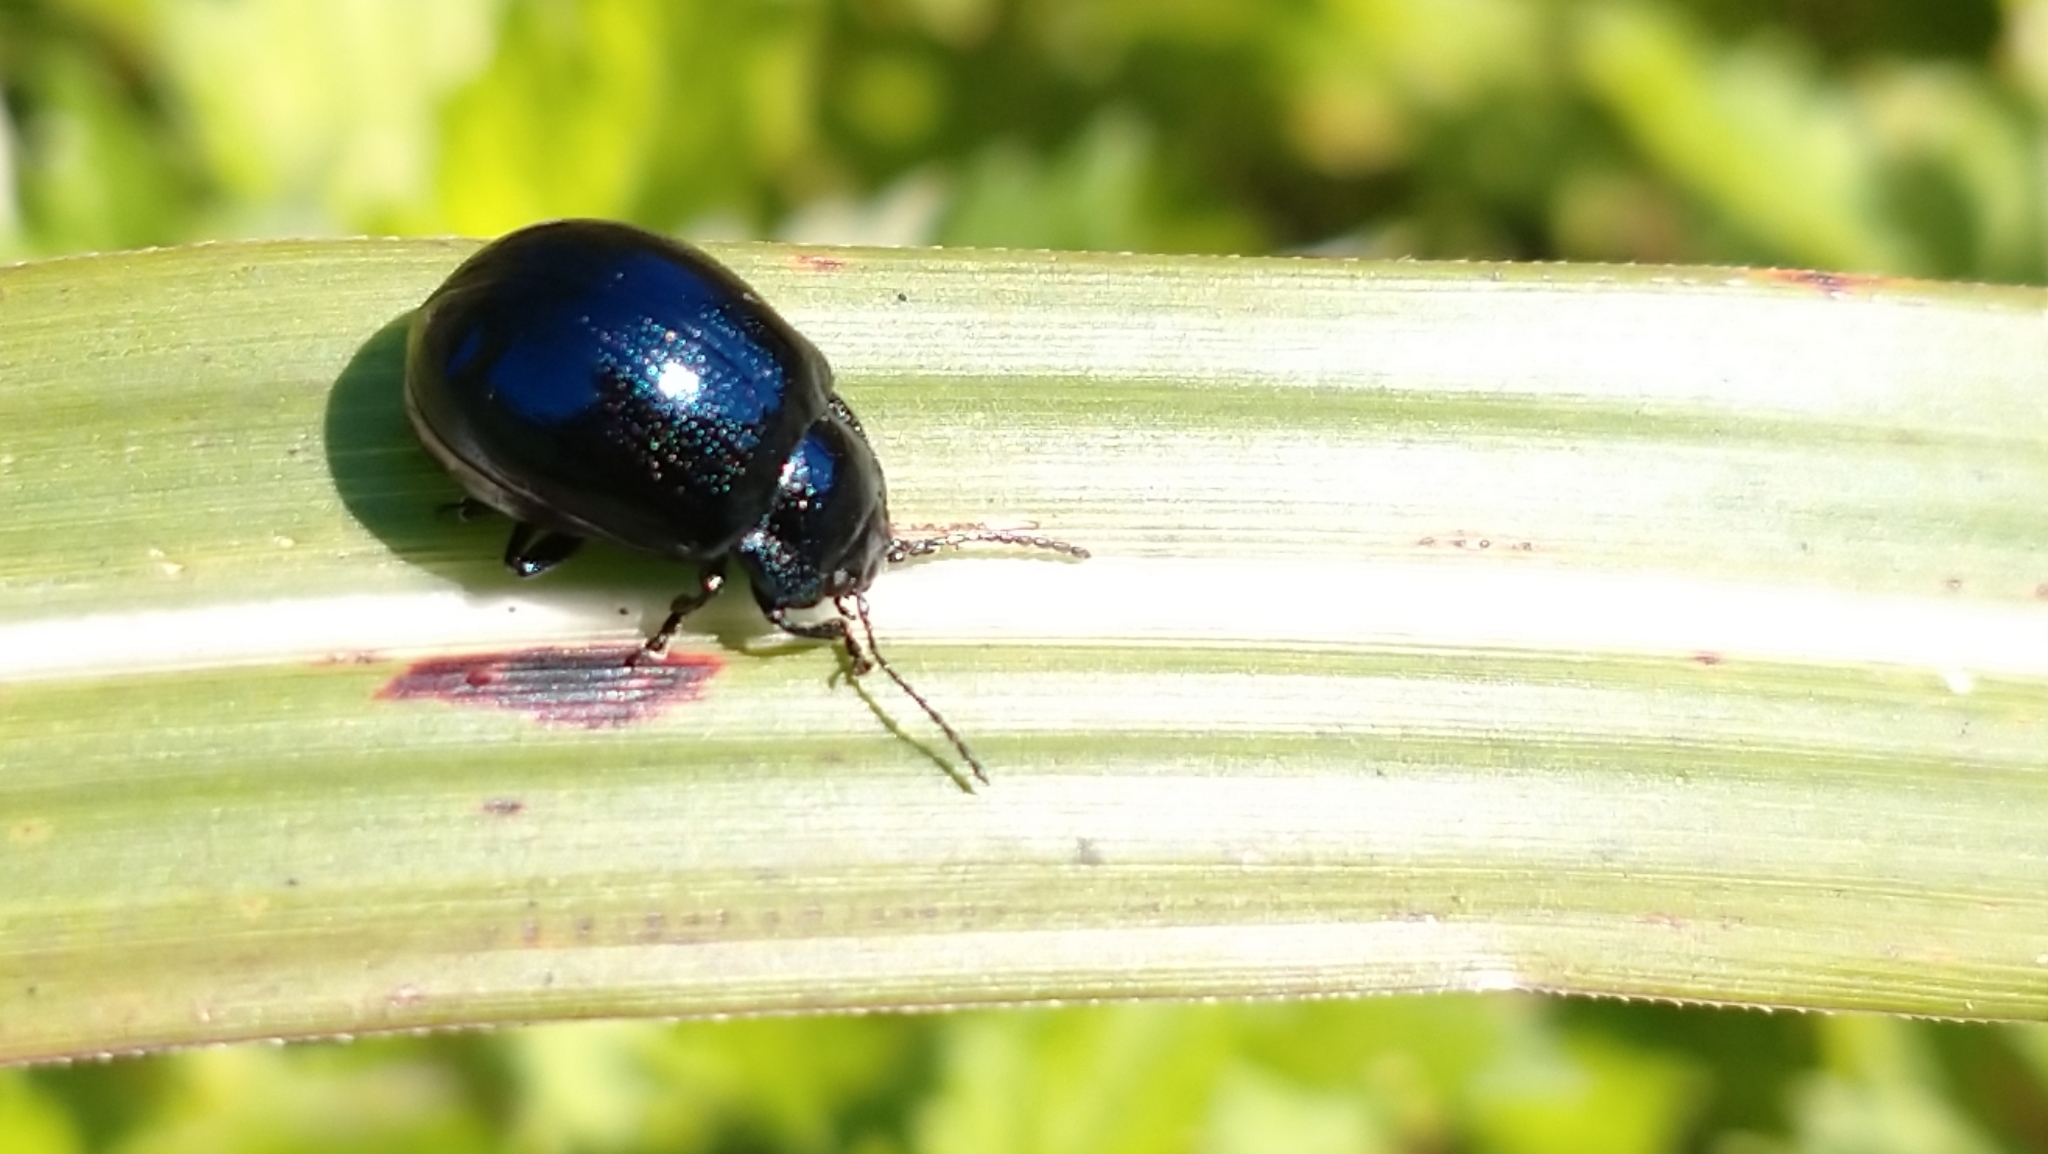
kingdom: Animalia
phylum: Arthropoda
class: Insecta
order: Coleoptera
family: Chrysomelidae
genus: Chrysolina
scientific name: Chrysolina aurichalcea
